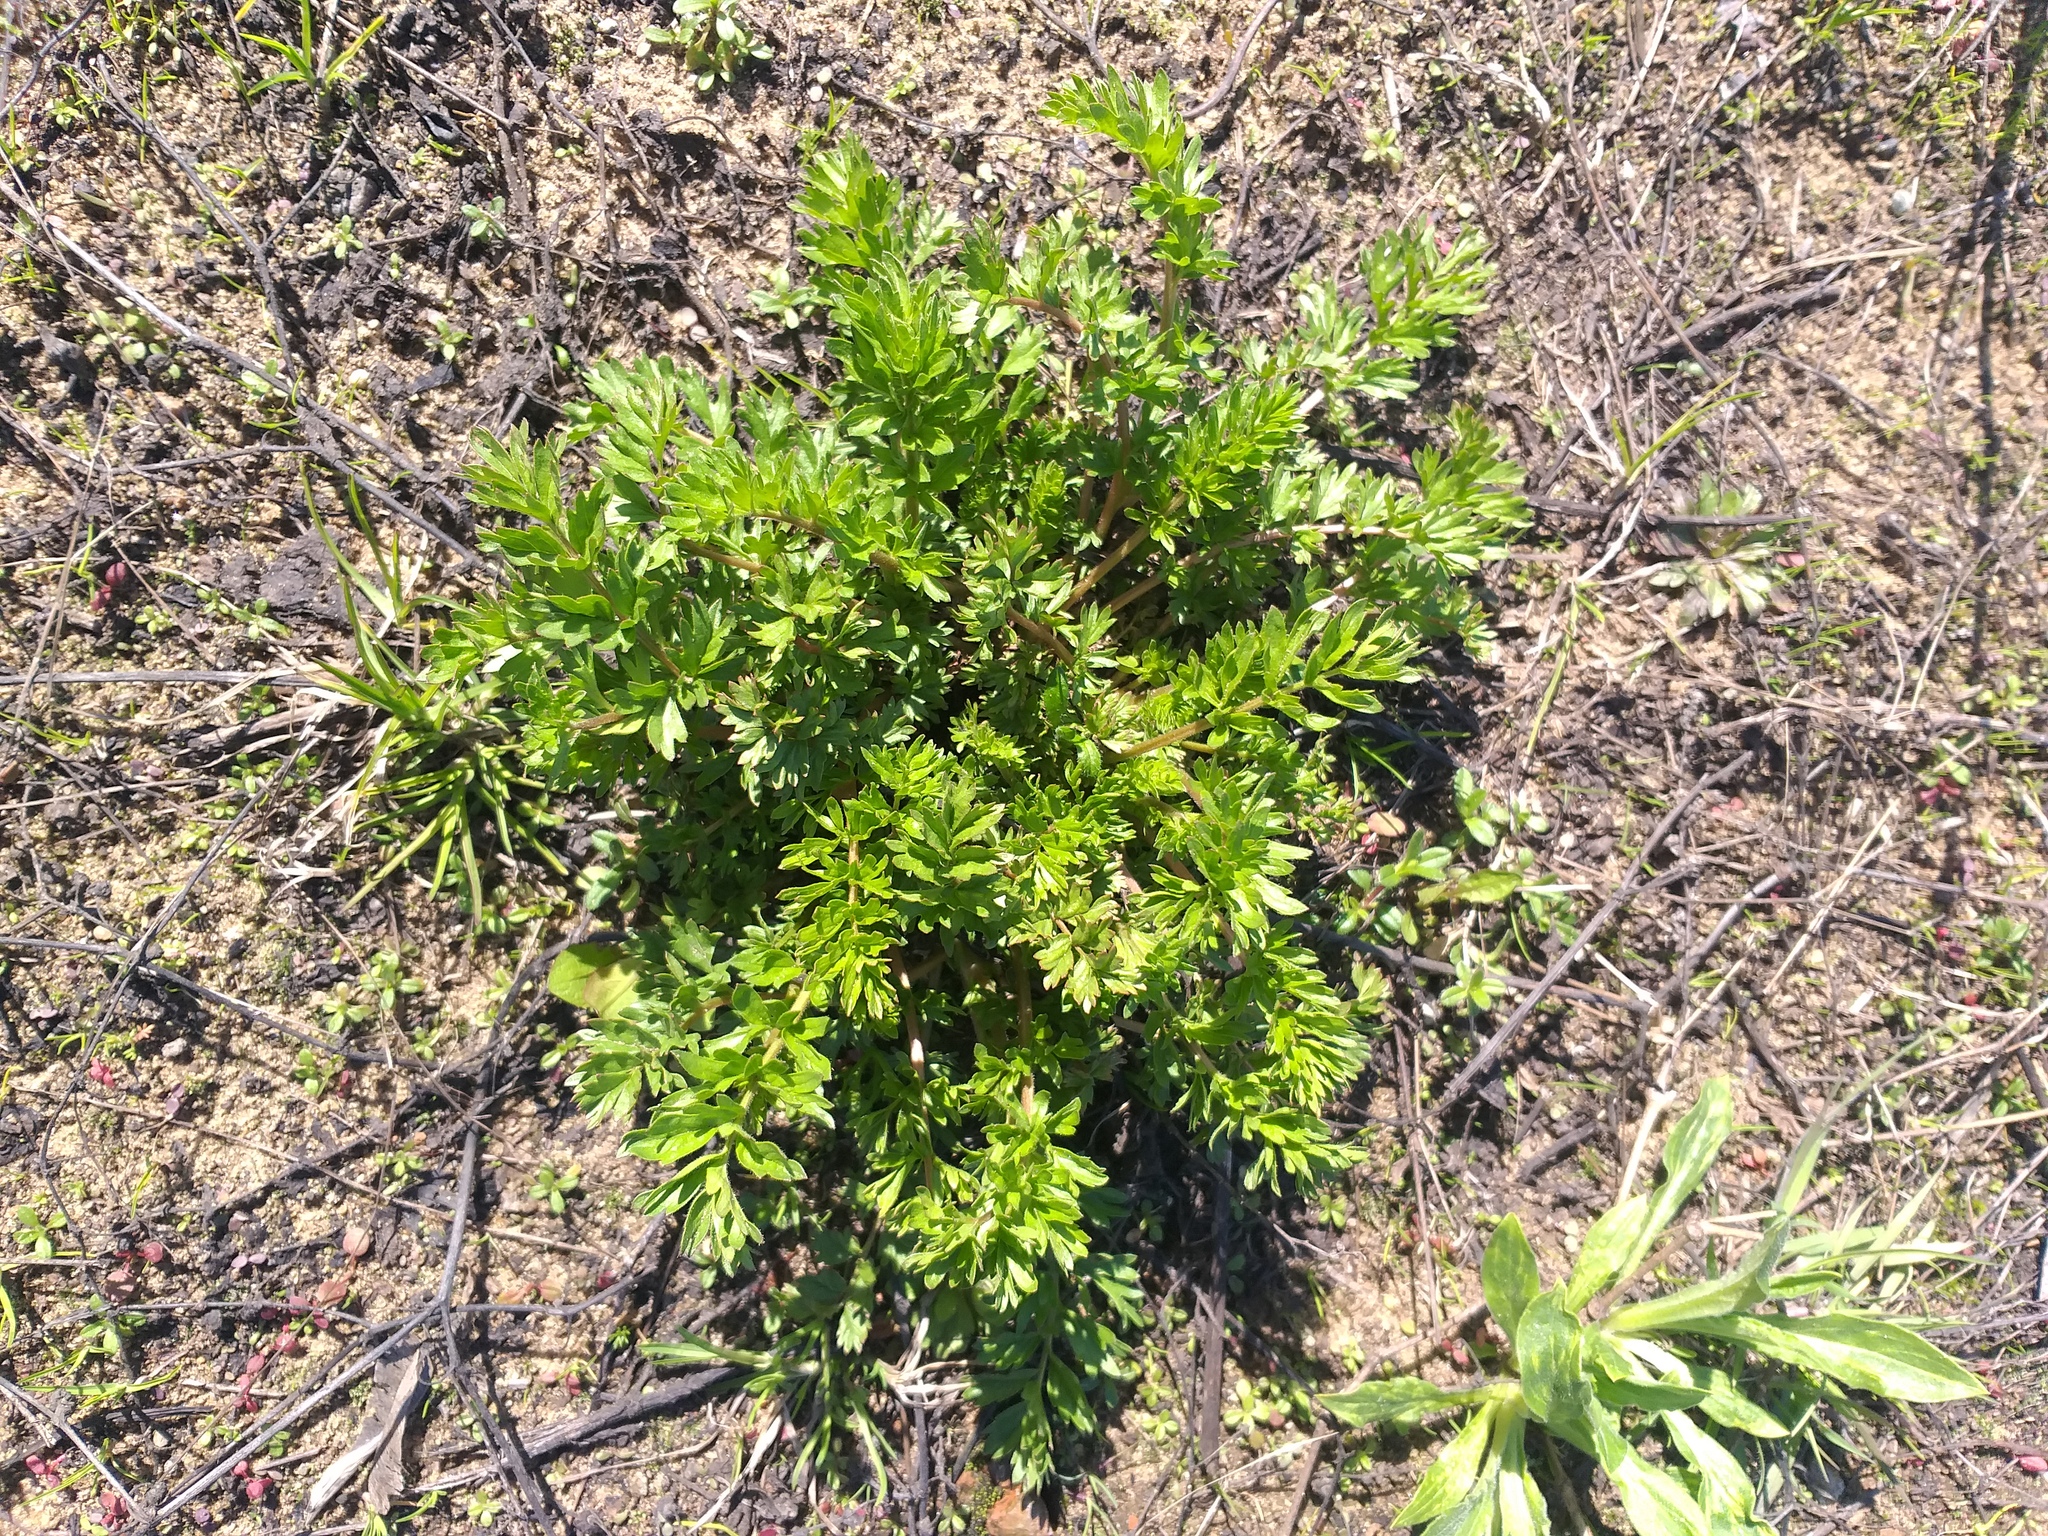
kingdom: Plantae
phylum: Tracheophyta
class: Magnoliopsida
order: Rosales
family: Rosaceae
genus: Potentilla
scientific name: Potentilla supina
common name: Prostrate cinquefoil
